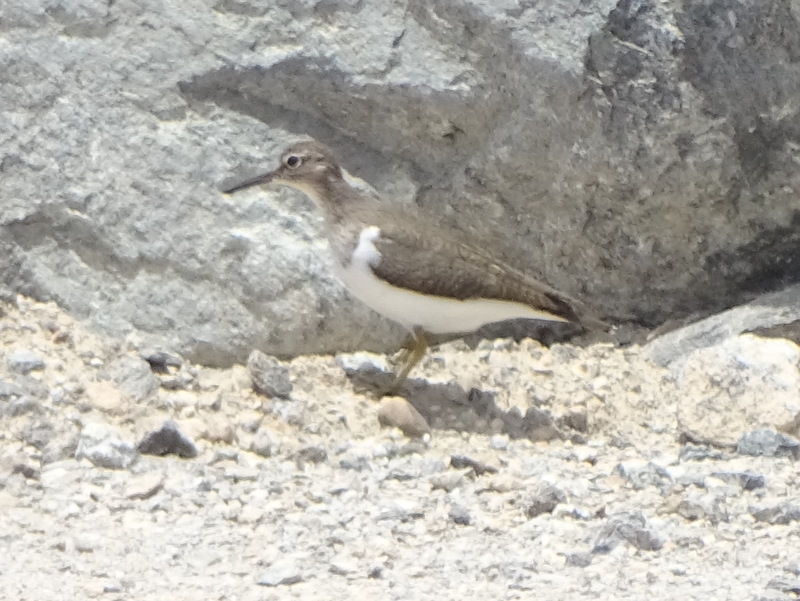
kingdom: Animalia
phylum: Chordata
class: Aves
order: Charadriiformes
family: Scolopacidae
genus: Actitis
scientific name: Actitis hypoleucos
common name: Common sandpiper
